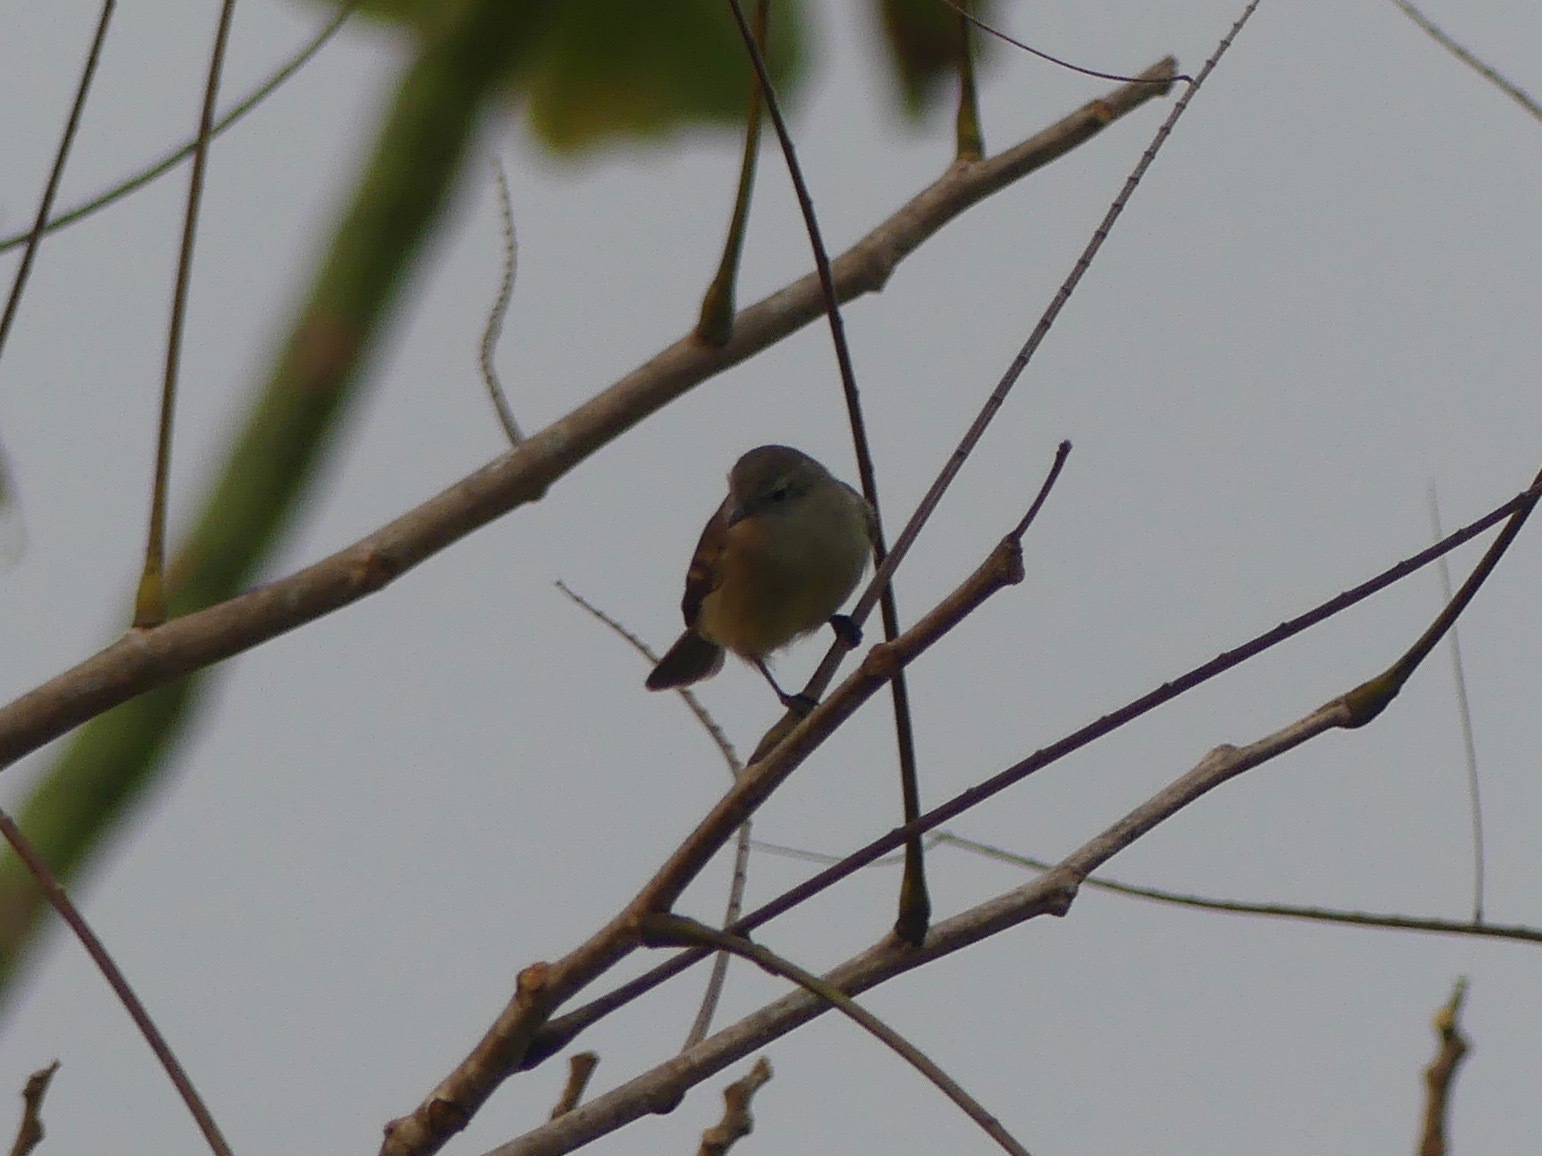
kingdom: Animalia
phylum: Chordata
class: Aves
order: Passeriformes
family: Tyrannidae
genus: Phaeomyias
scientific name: Phaeomyias murina
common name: Mouse-colored tyrannulet
